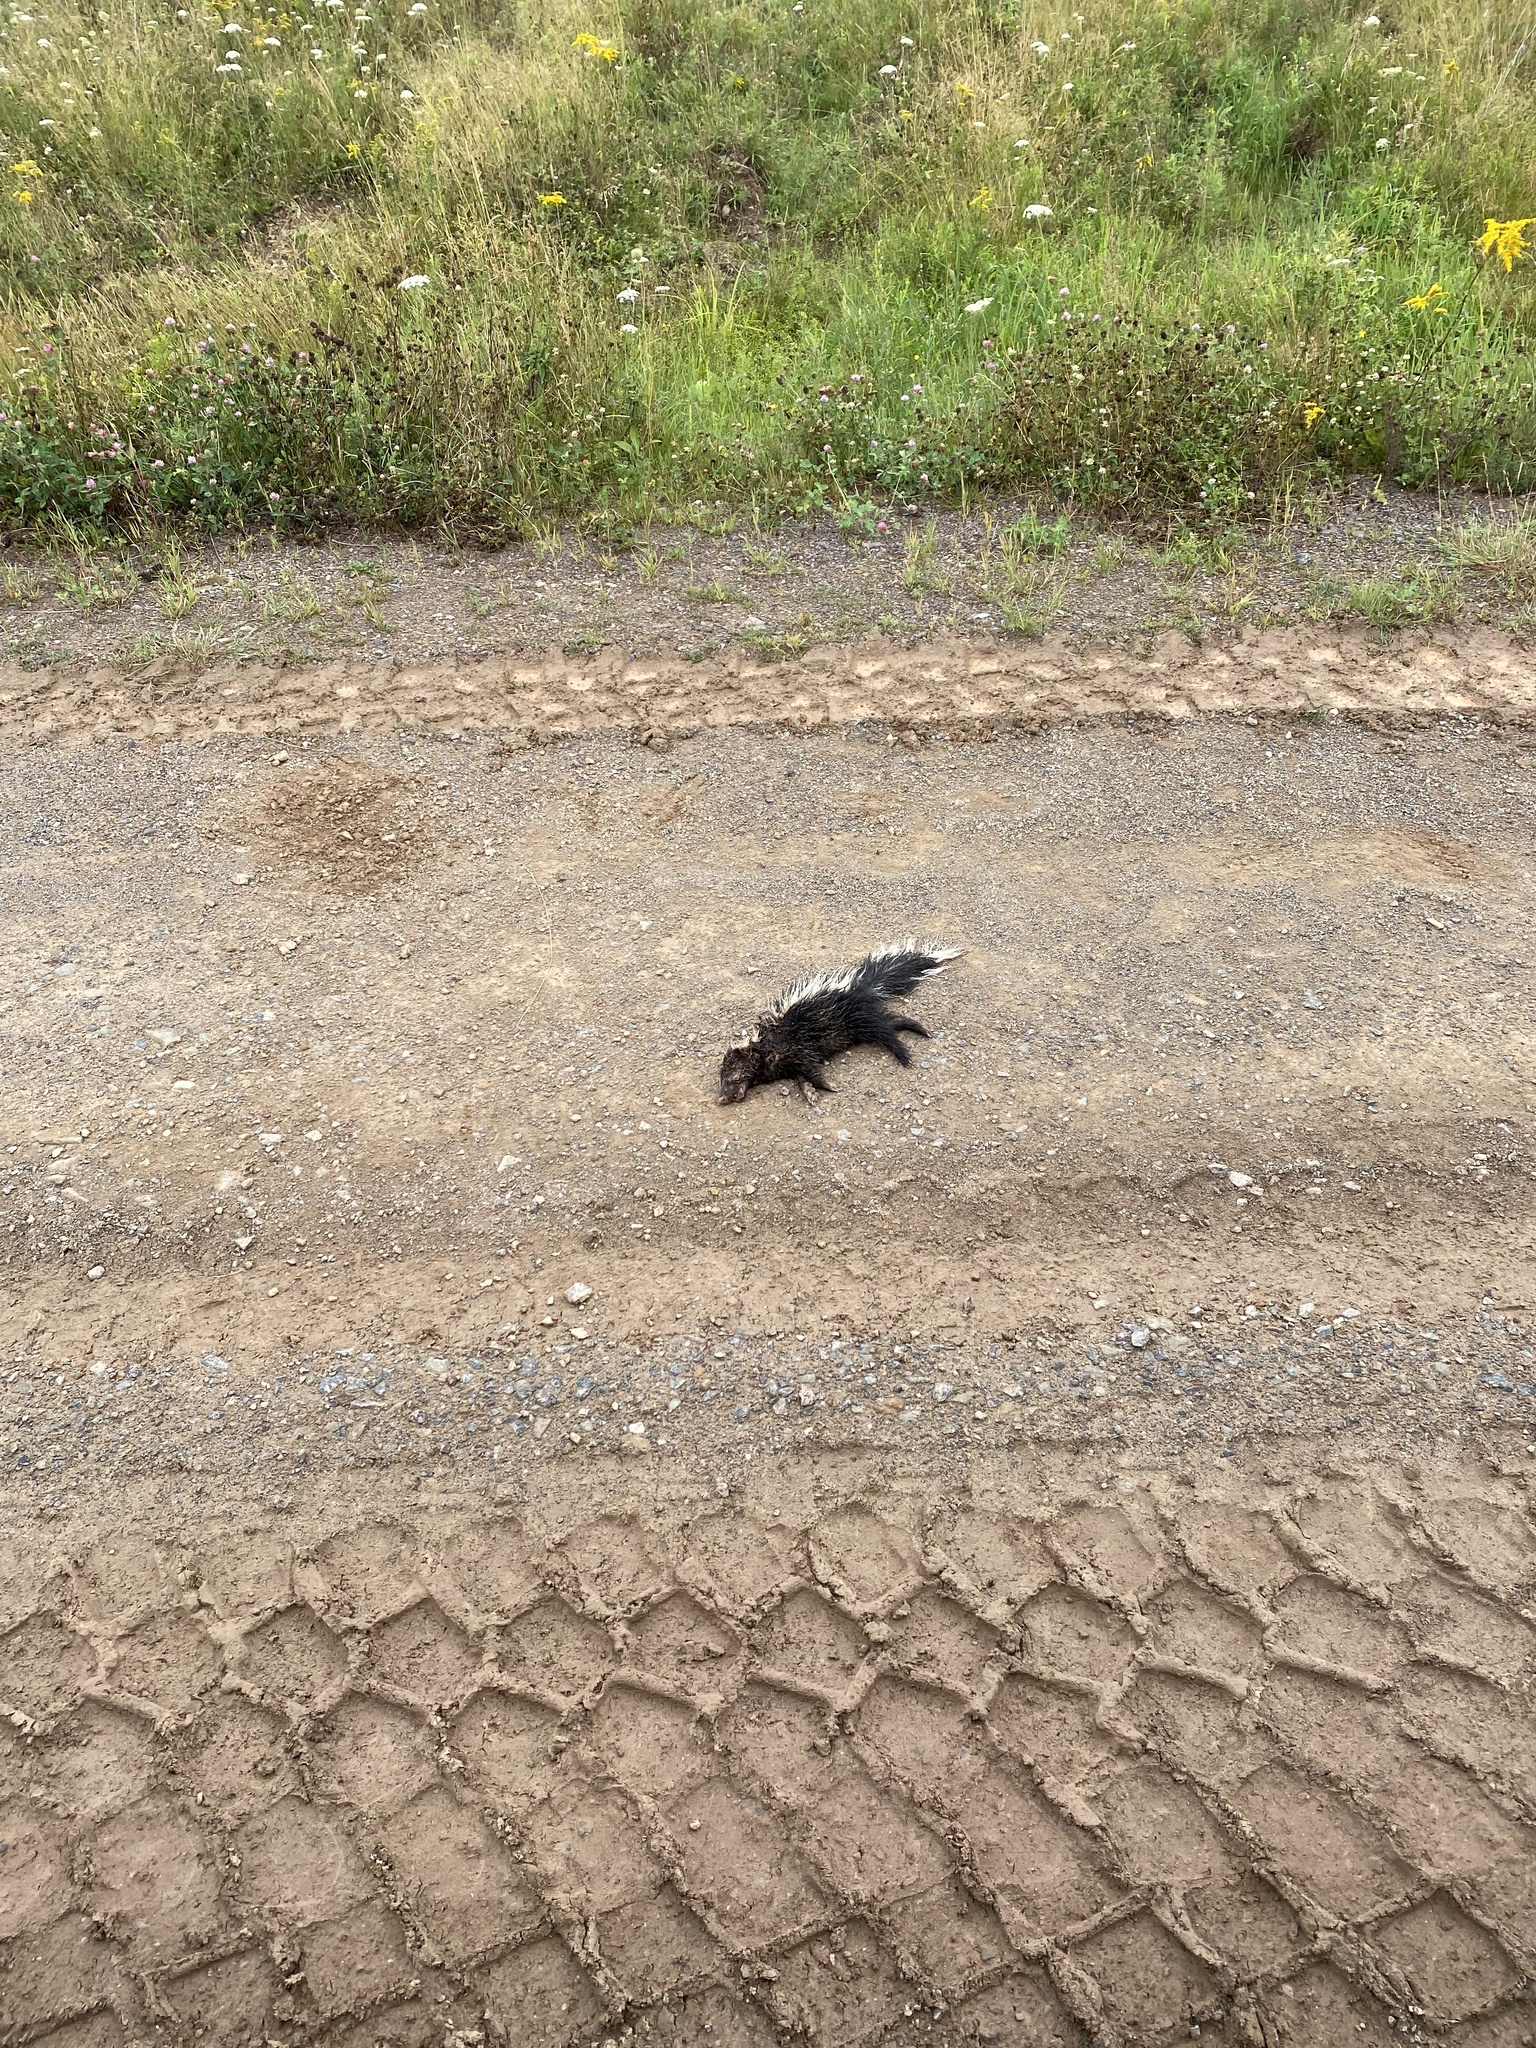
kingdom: Animalia
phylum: Chordata
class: Mammalia
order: Carnivora
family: Mephitidae
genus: Mephitis
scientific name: Mephitis mephitis
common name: Striped skunk
